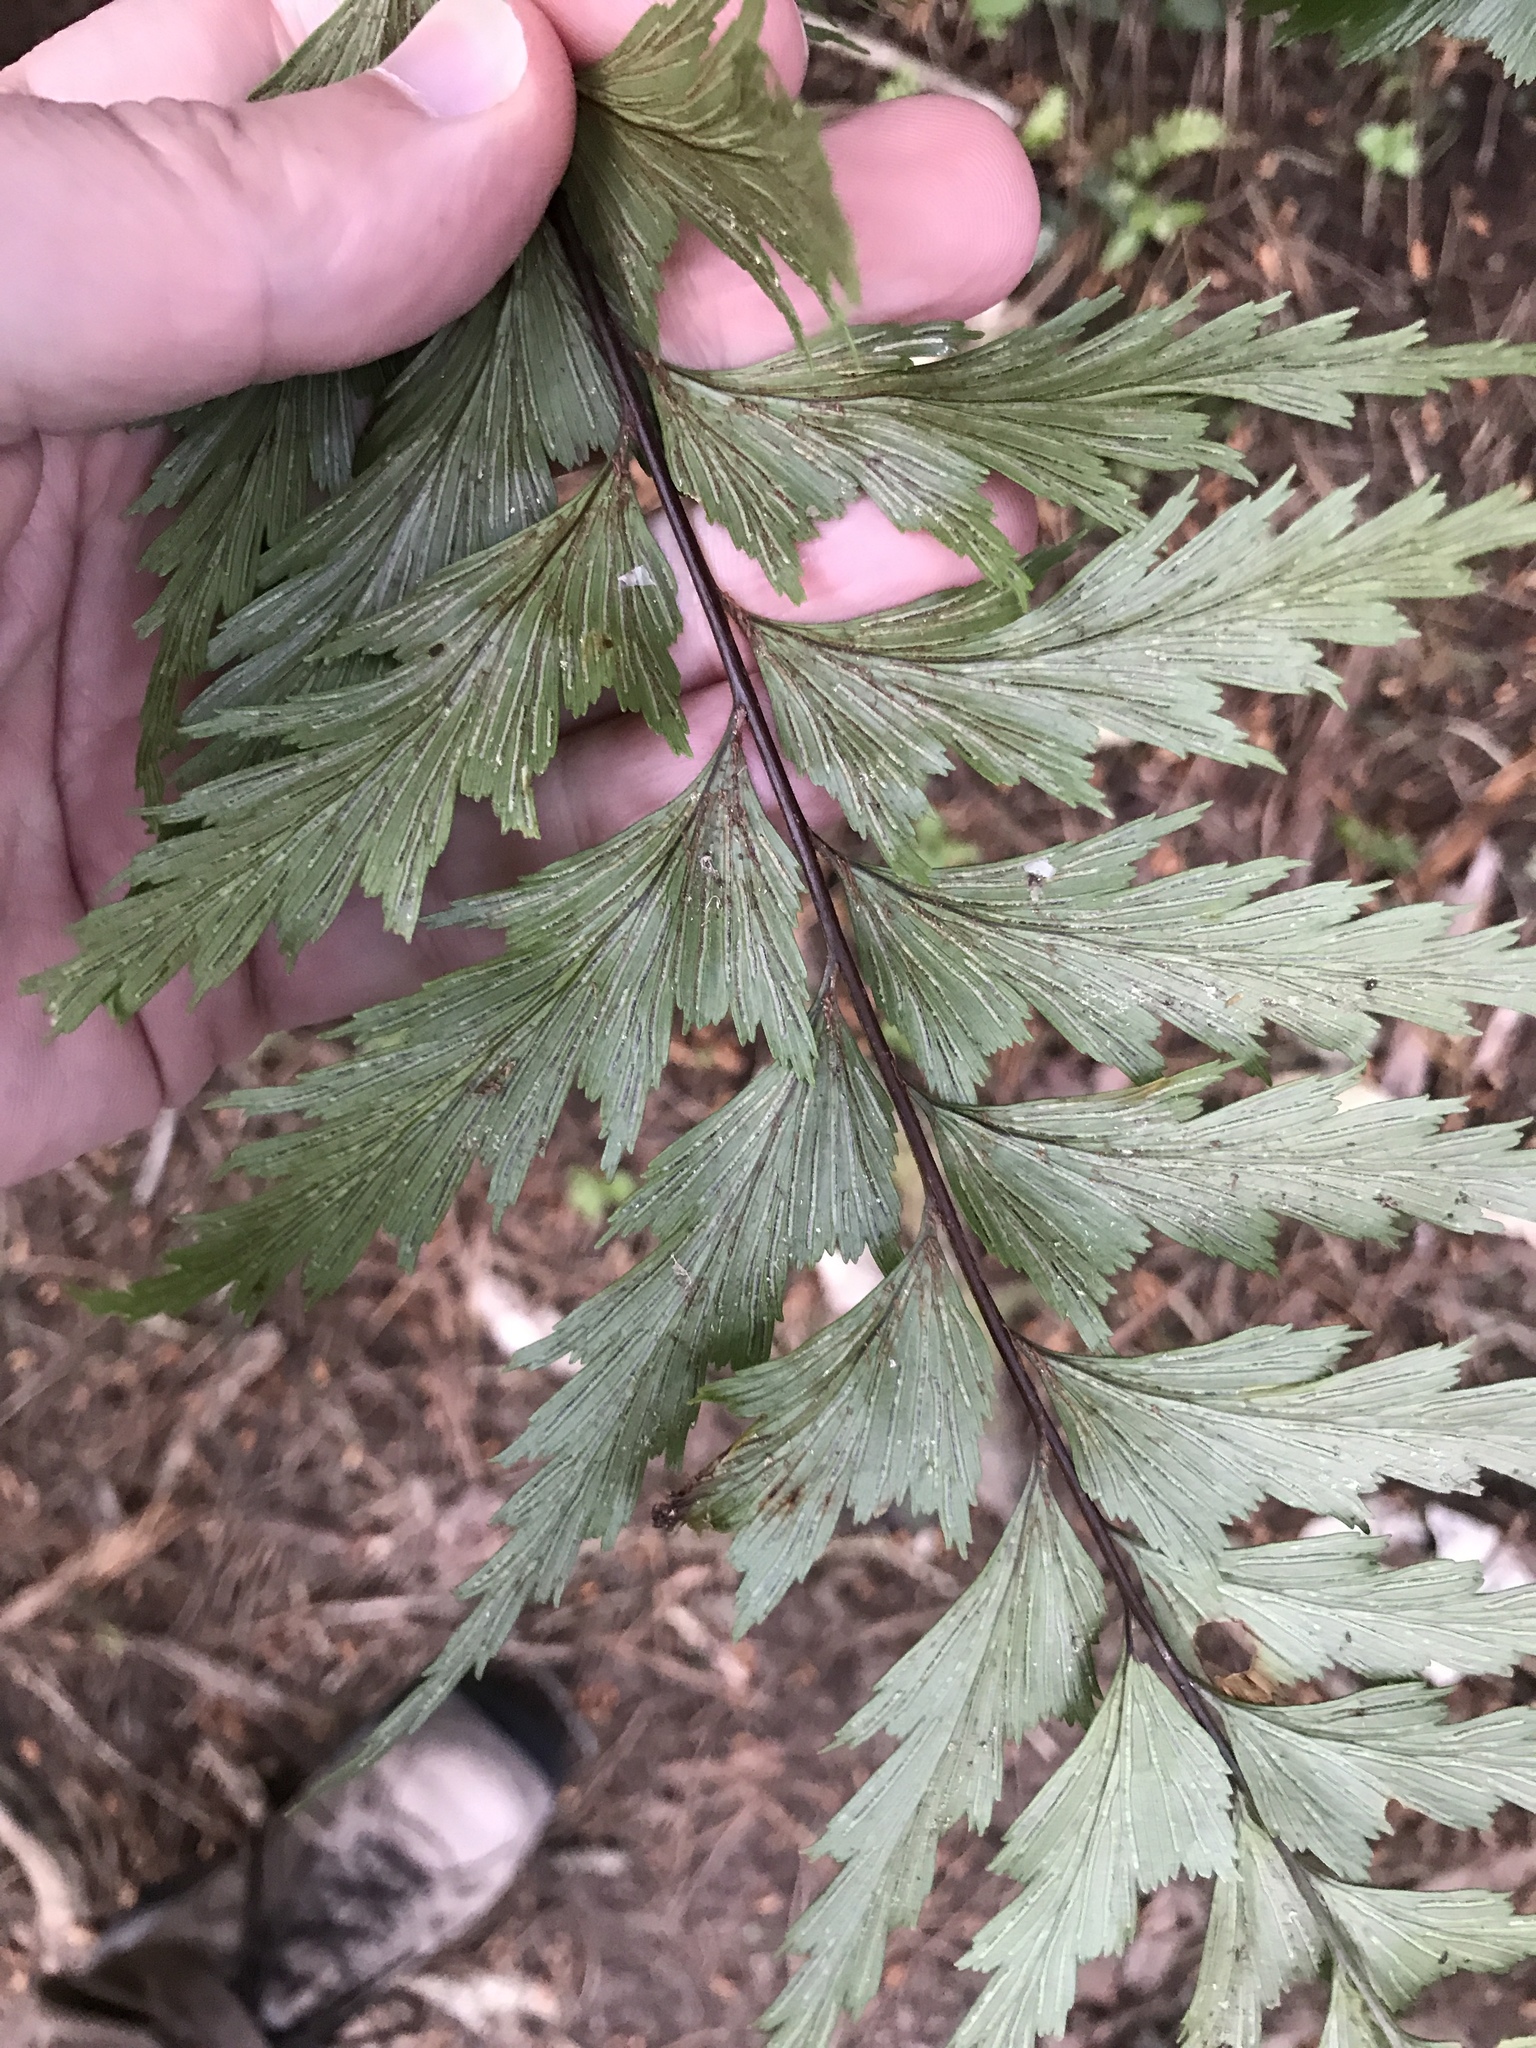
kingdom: Plantae
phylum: Tracheophyta
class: Polypodiopsida
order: Polypodiales
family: Aspleniaceae
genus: Asplenium
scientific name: Asplenium polyodon
